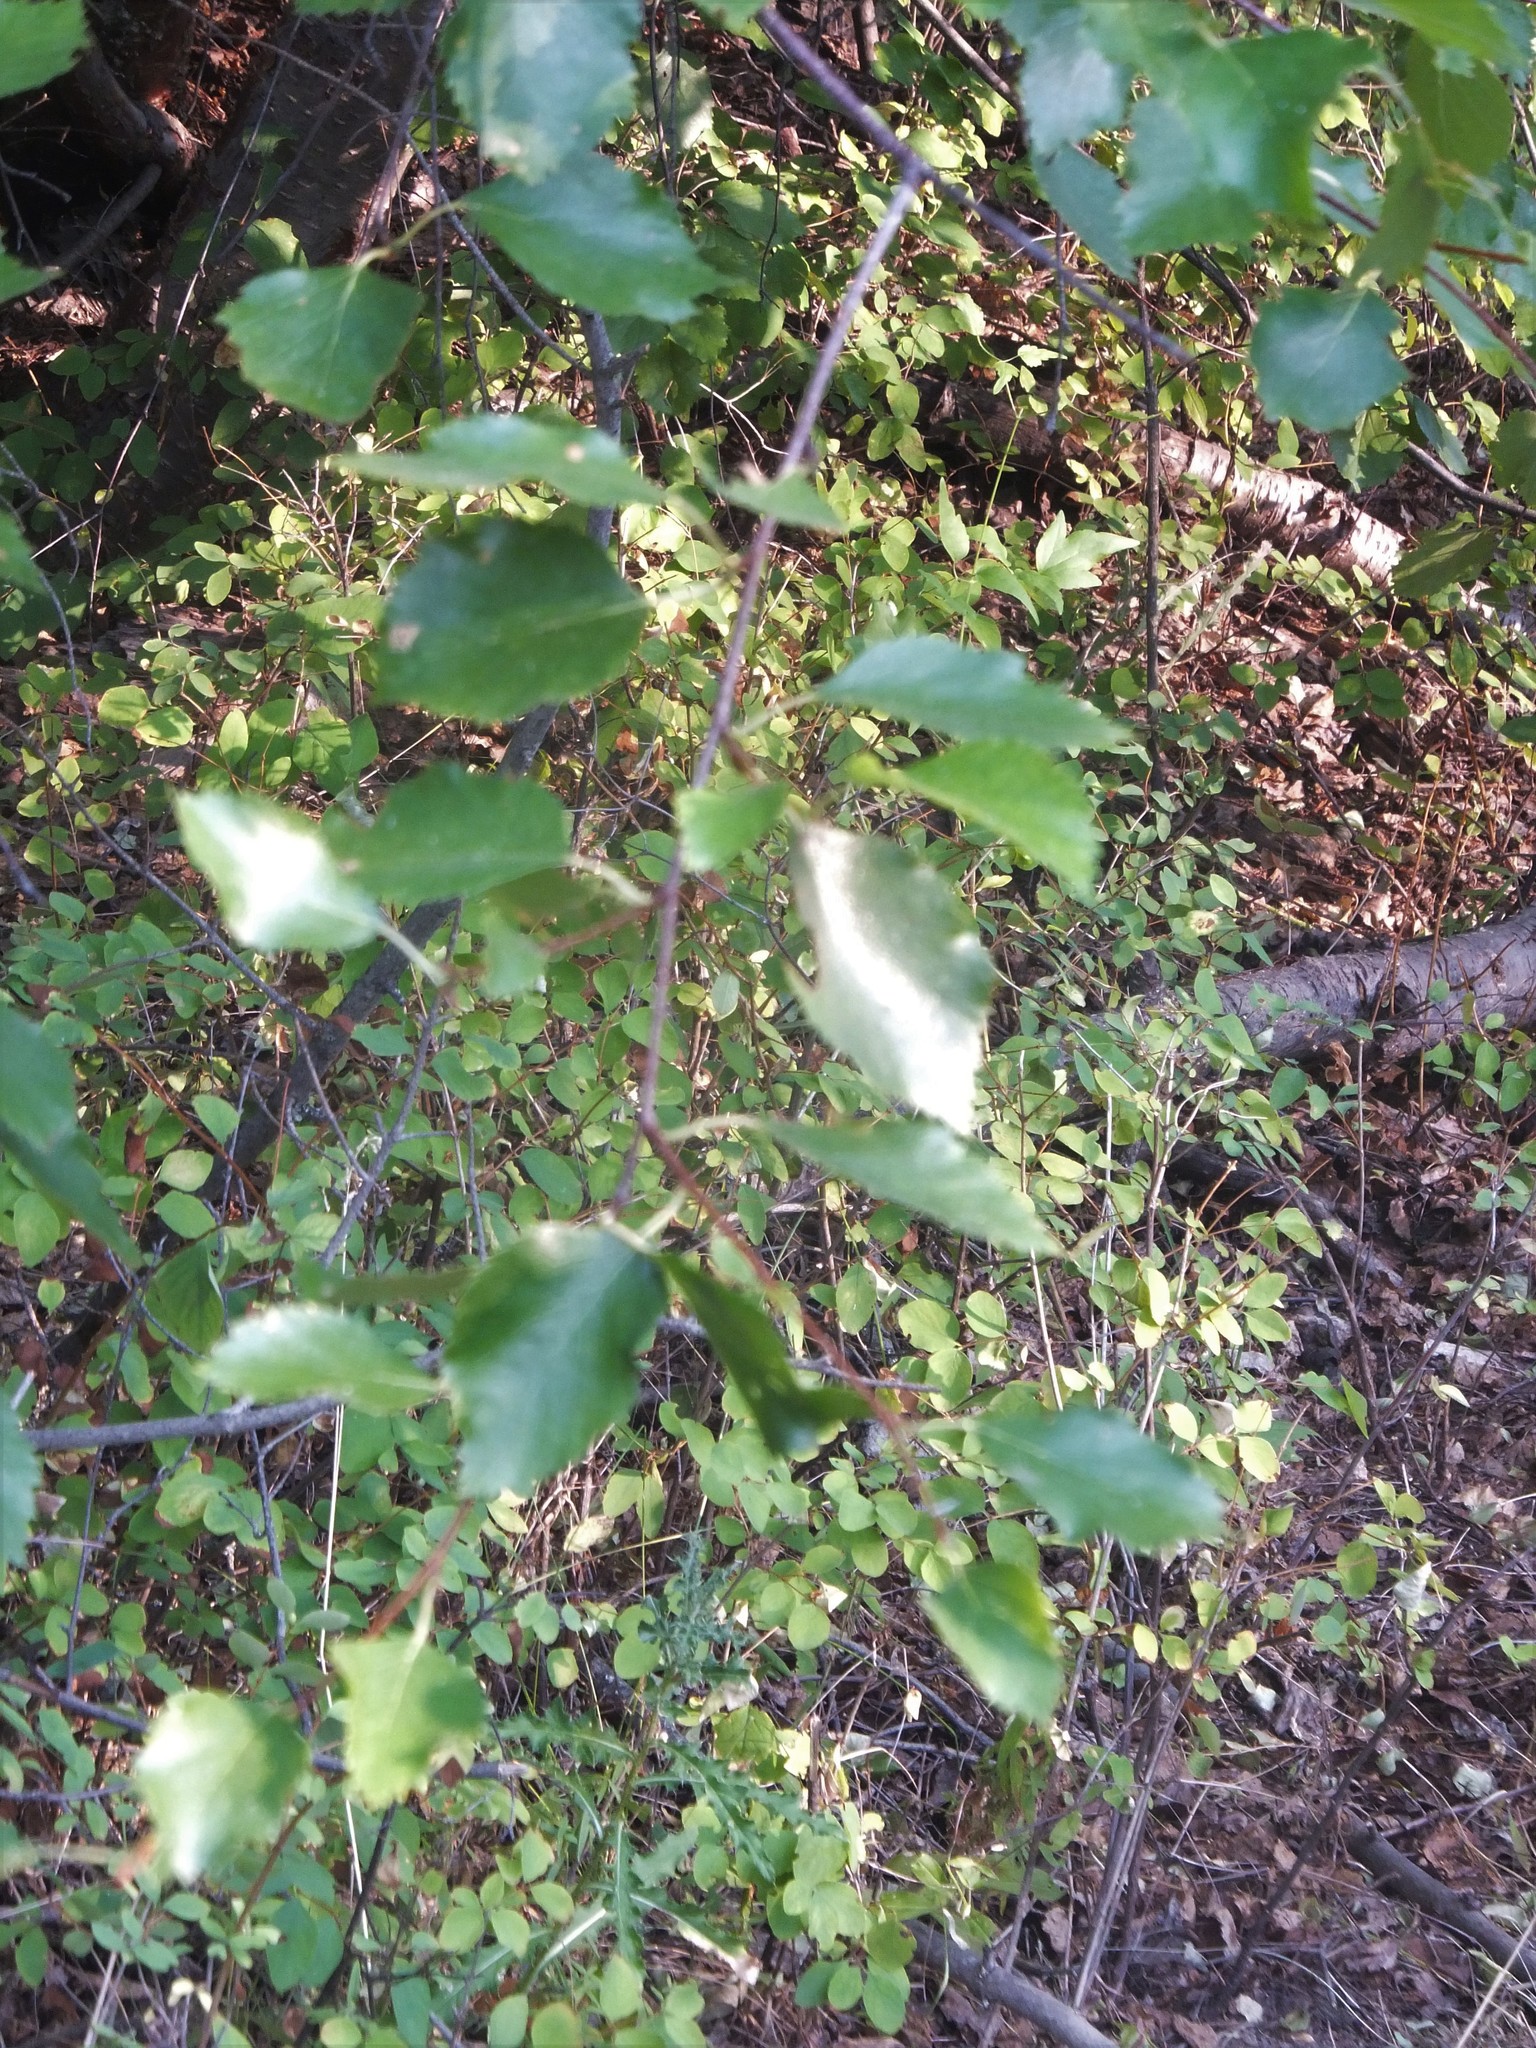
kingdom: Plantae
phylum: Tracheophyta
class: Magnoliopsida
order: Fagales
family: Betulaceae
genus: Betula
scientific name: Betula occidentalis
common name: River birch
